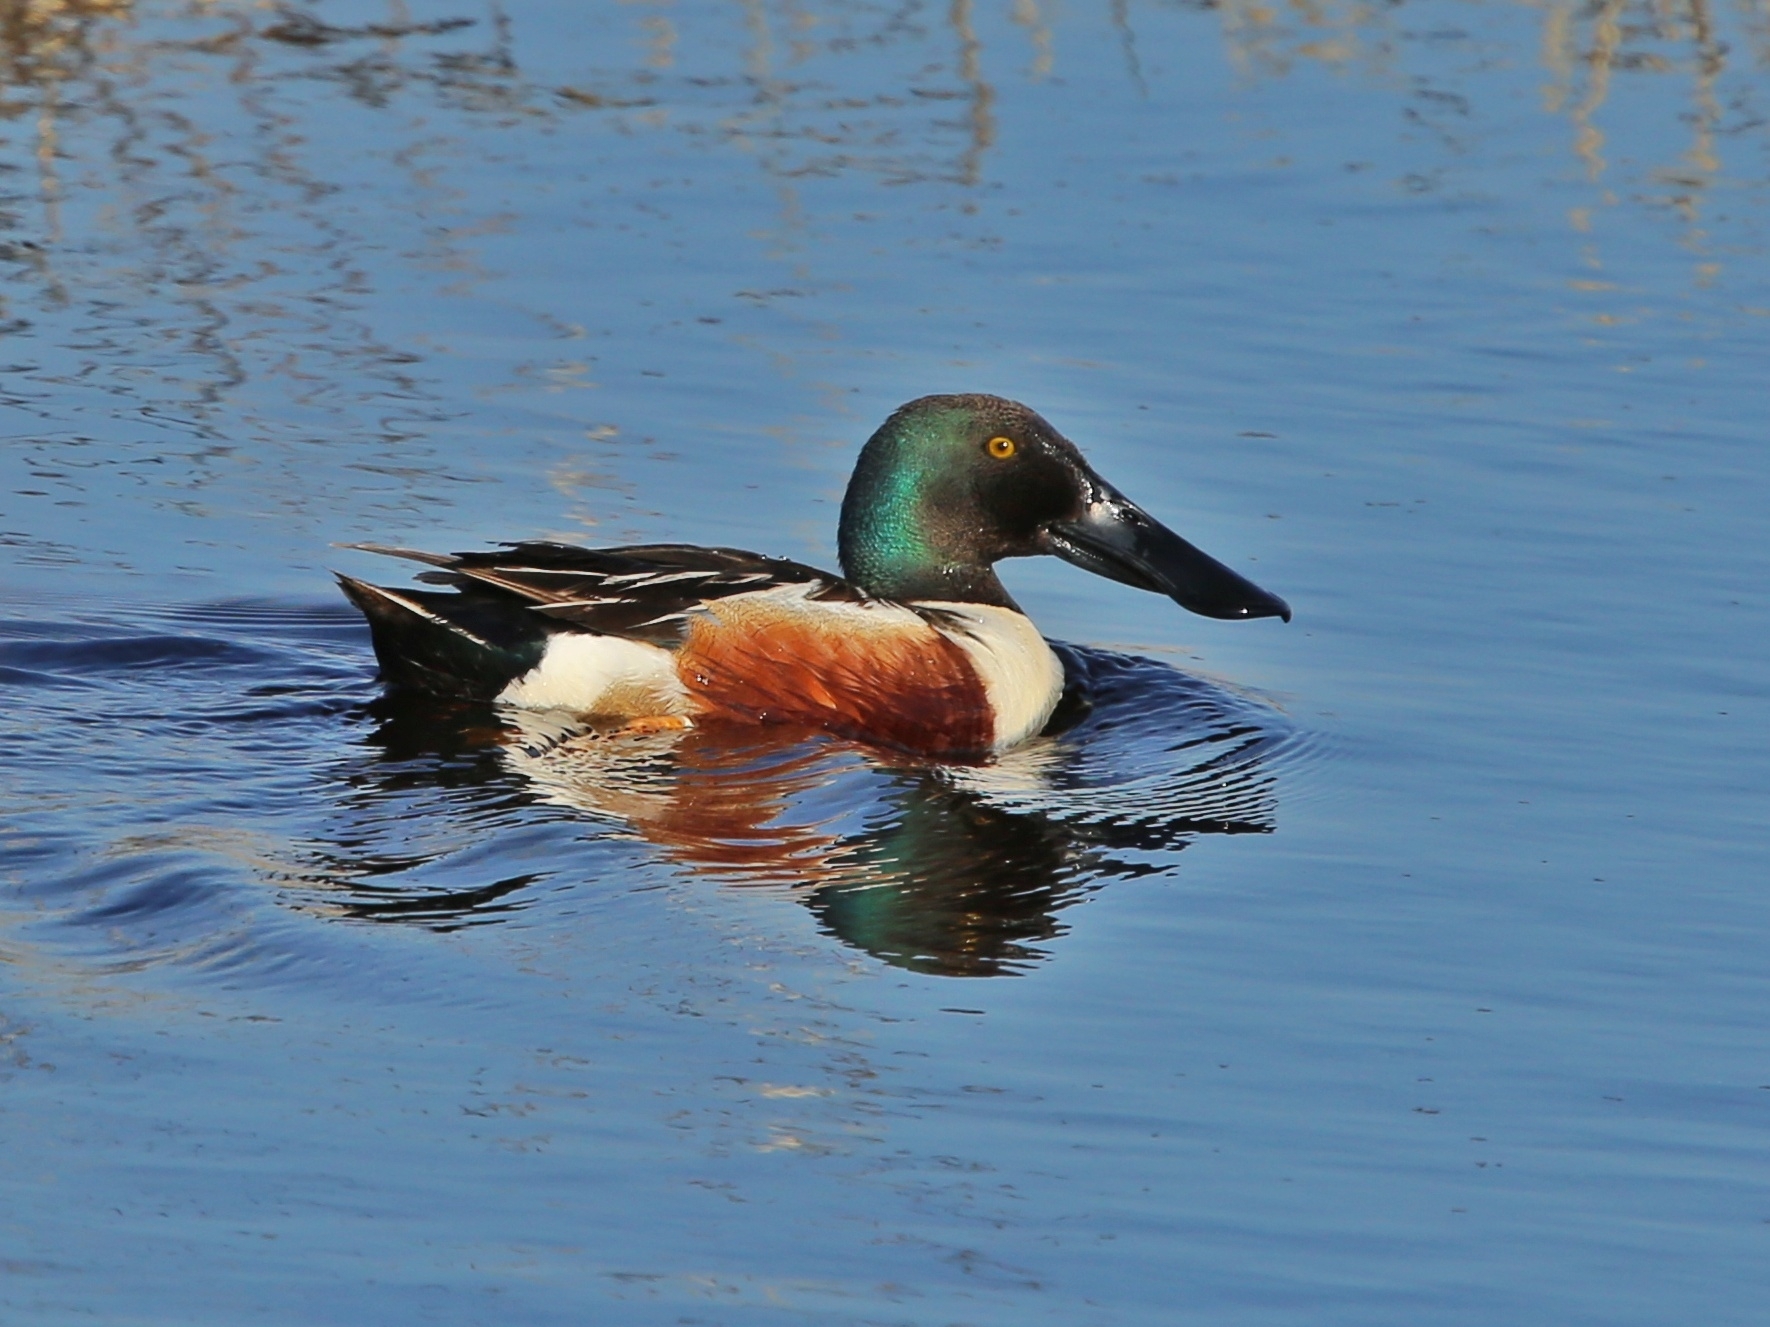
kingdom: Animalia
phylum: Chordata
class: Aves
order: Anseriformes
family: Anatidae
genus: Spatula
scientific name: Spatula clypeata
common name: Northern shoveler
